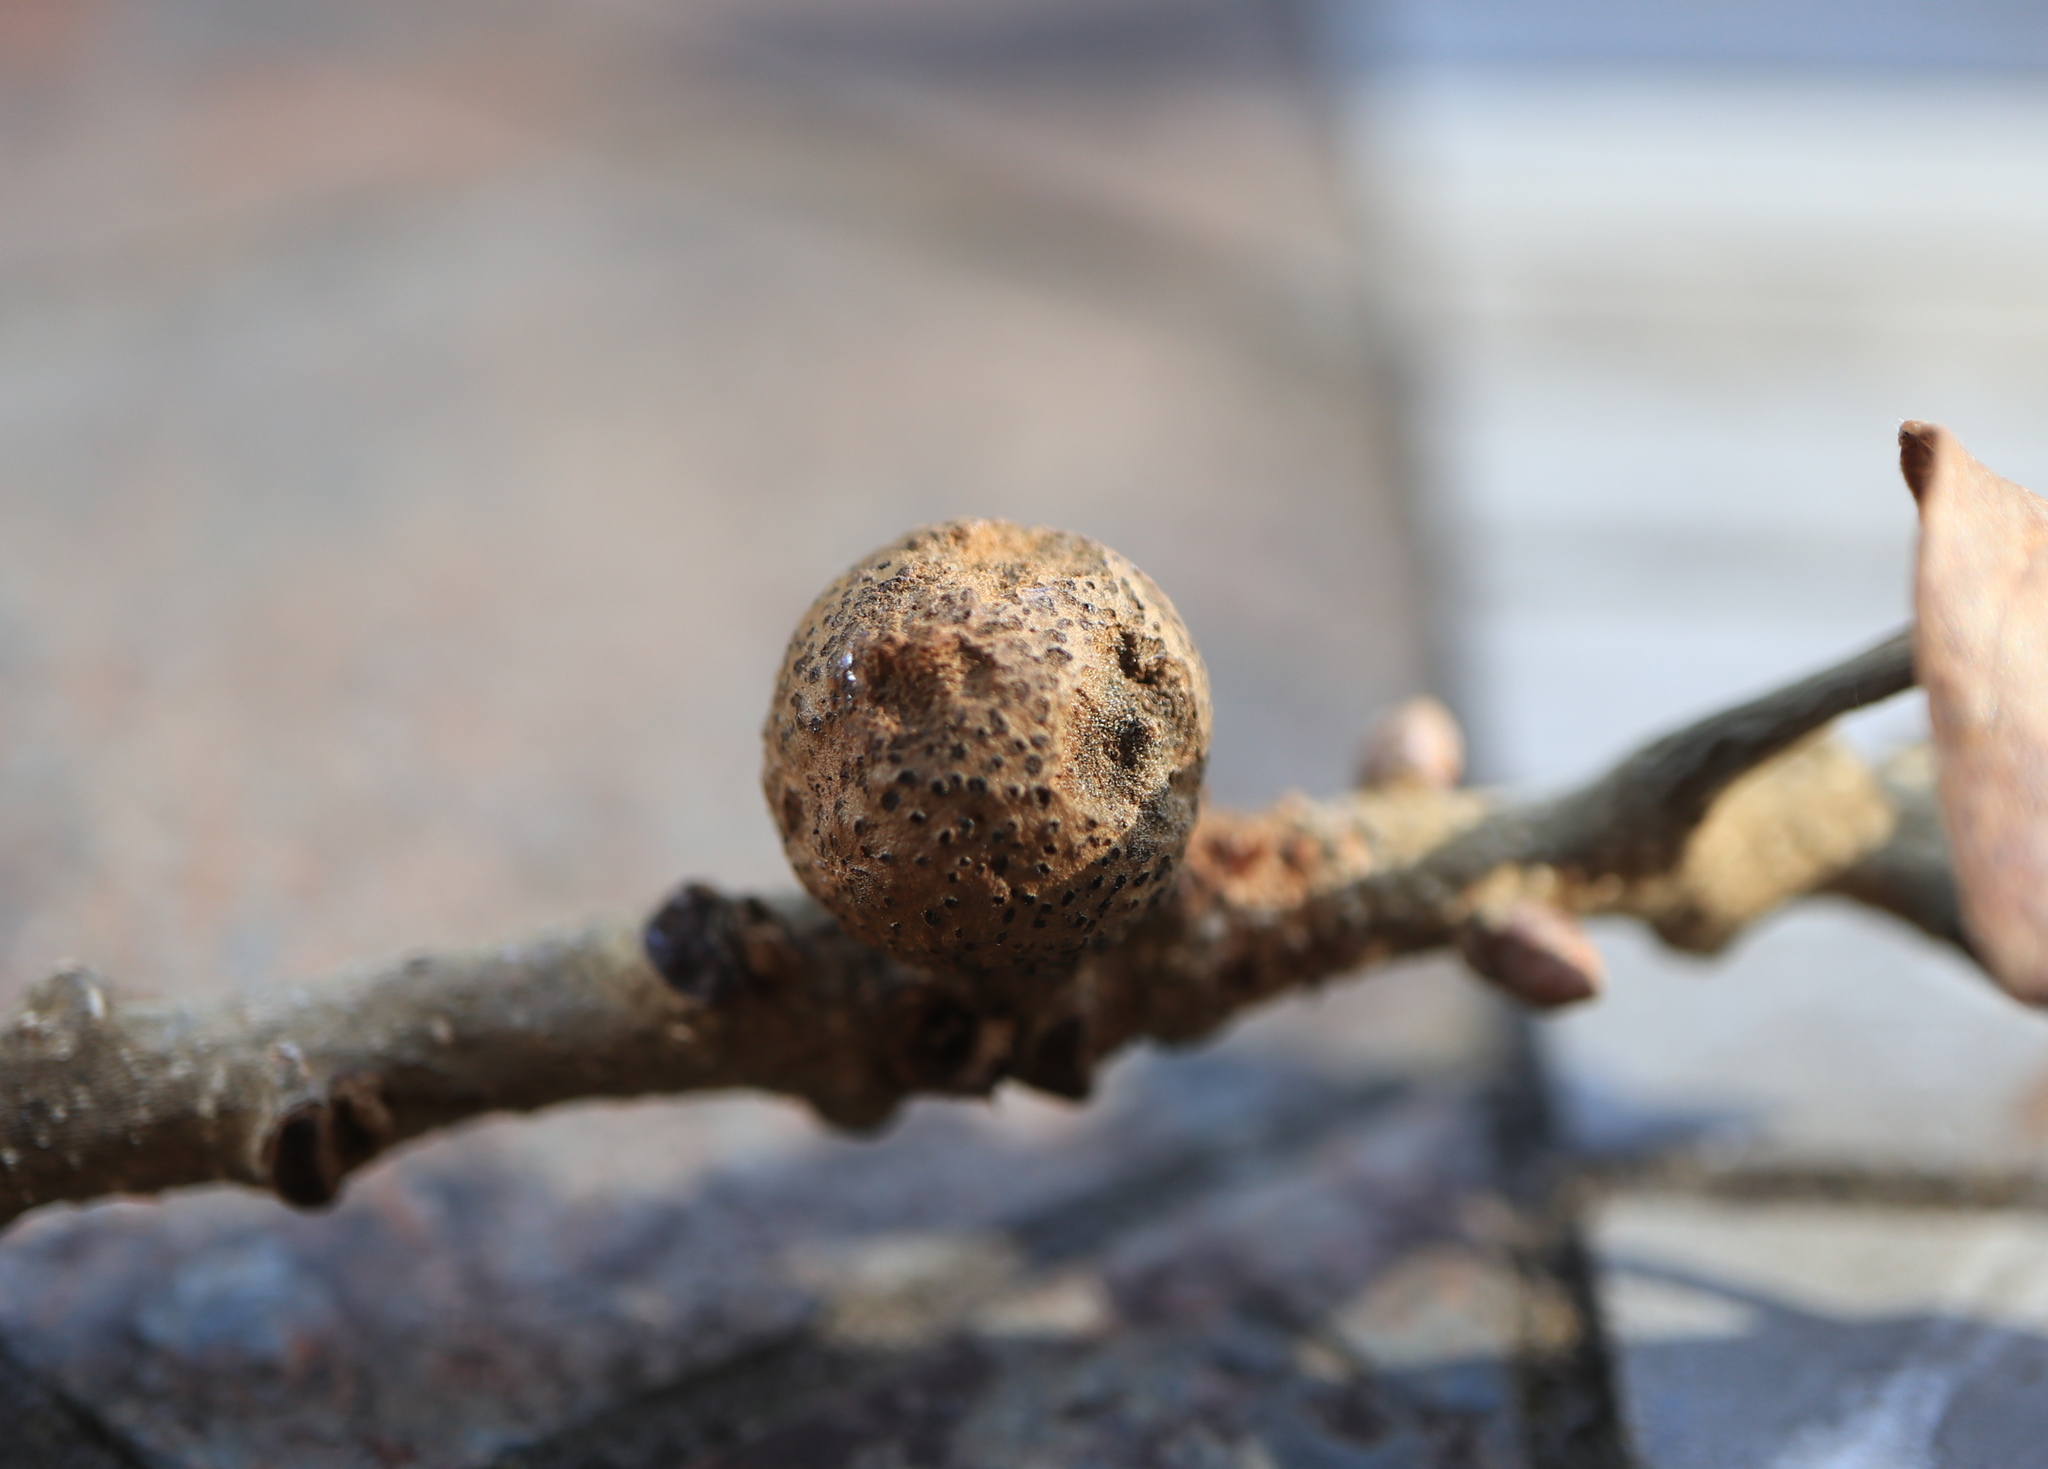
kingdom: Animalia
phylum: Arthropoda
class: Insecta
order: Hymenoptera
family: Cynipidae
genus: Disholcaspis
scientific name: Disholcaspis quercusglobulus
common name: Round bullet gall wasp
